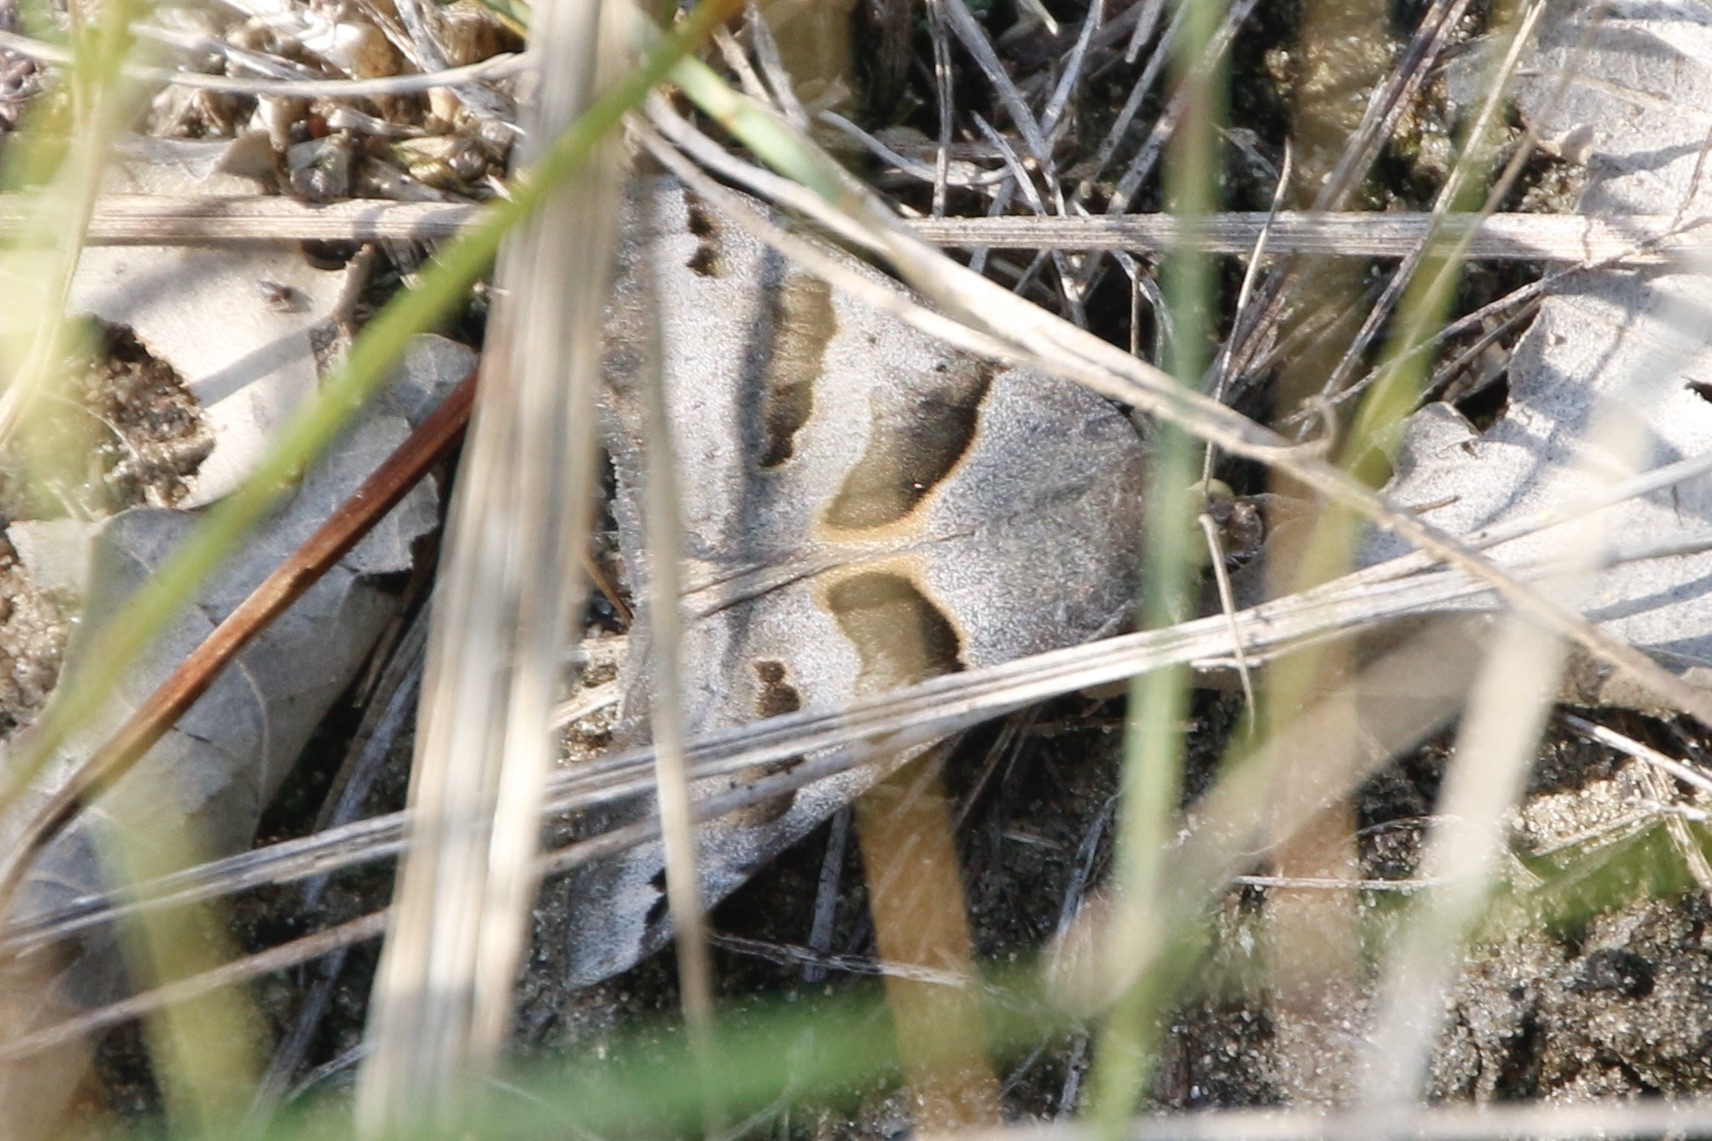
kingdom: Animalia
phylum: Arthropoda
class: Insecta
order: Lepidoptera
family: Erebidae
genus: Caenurgina
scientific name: Caenurgina erechtea
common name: Forage looper moth
